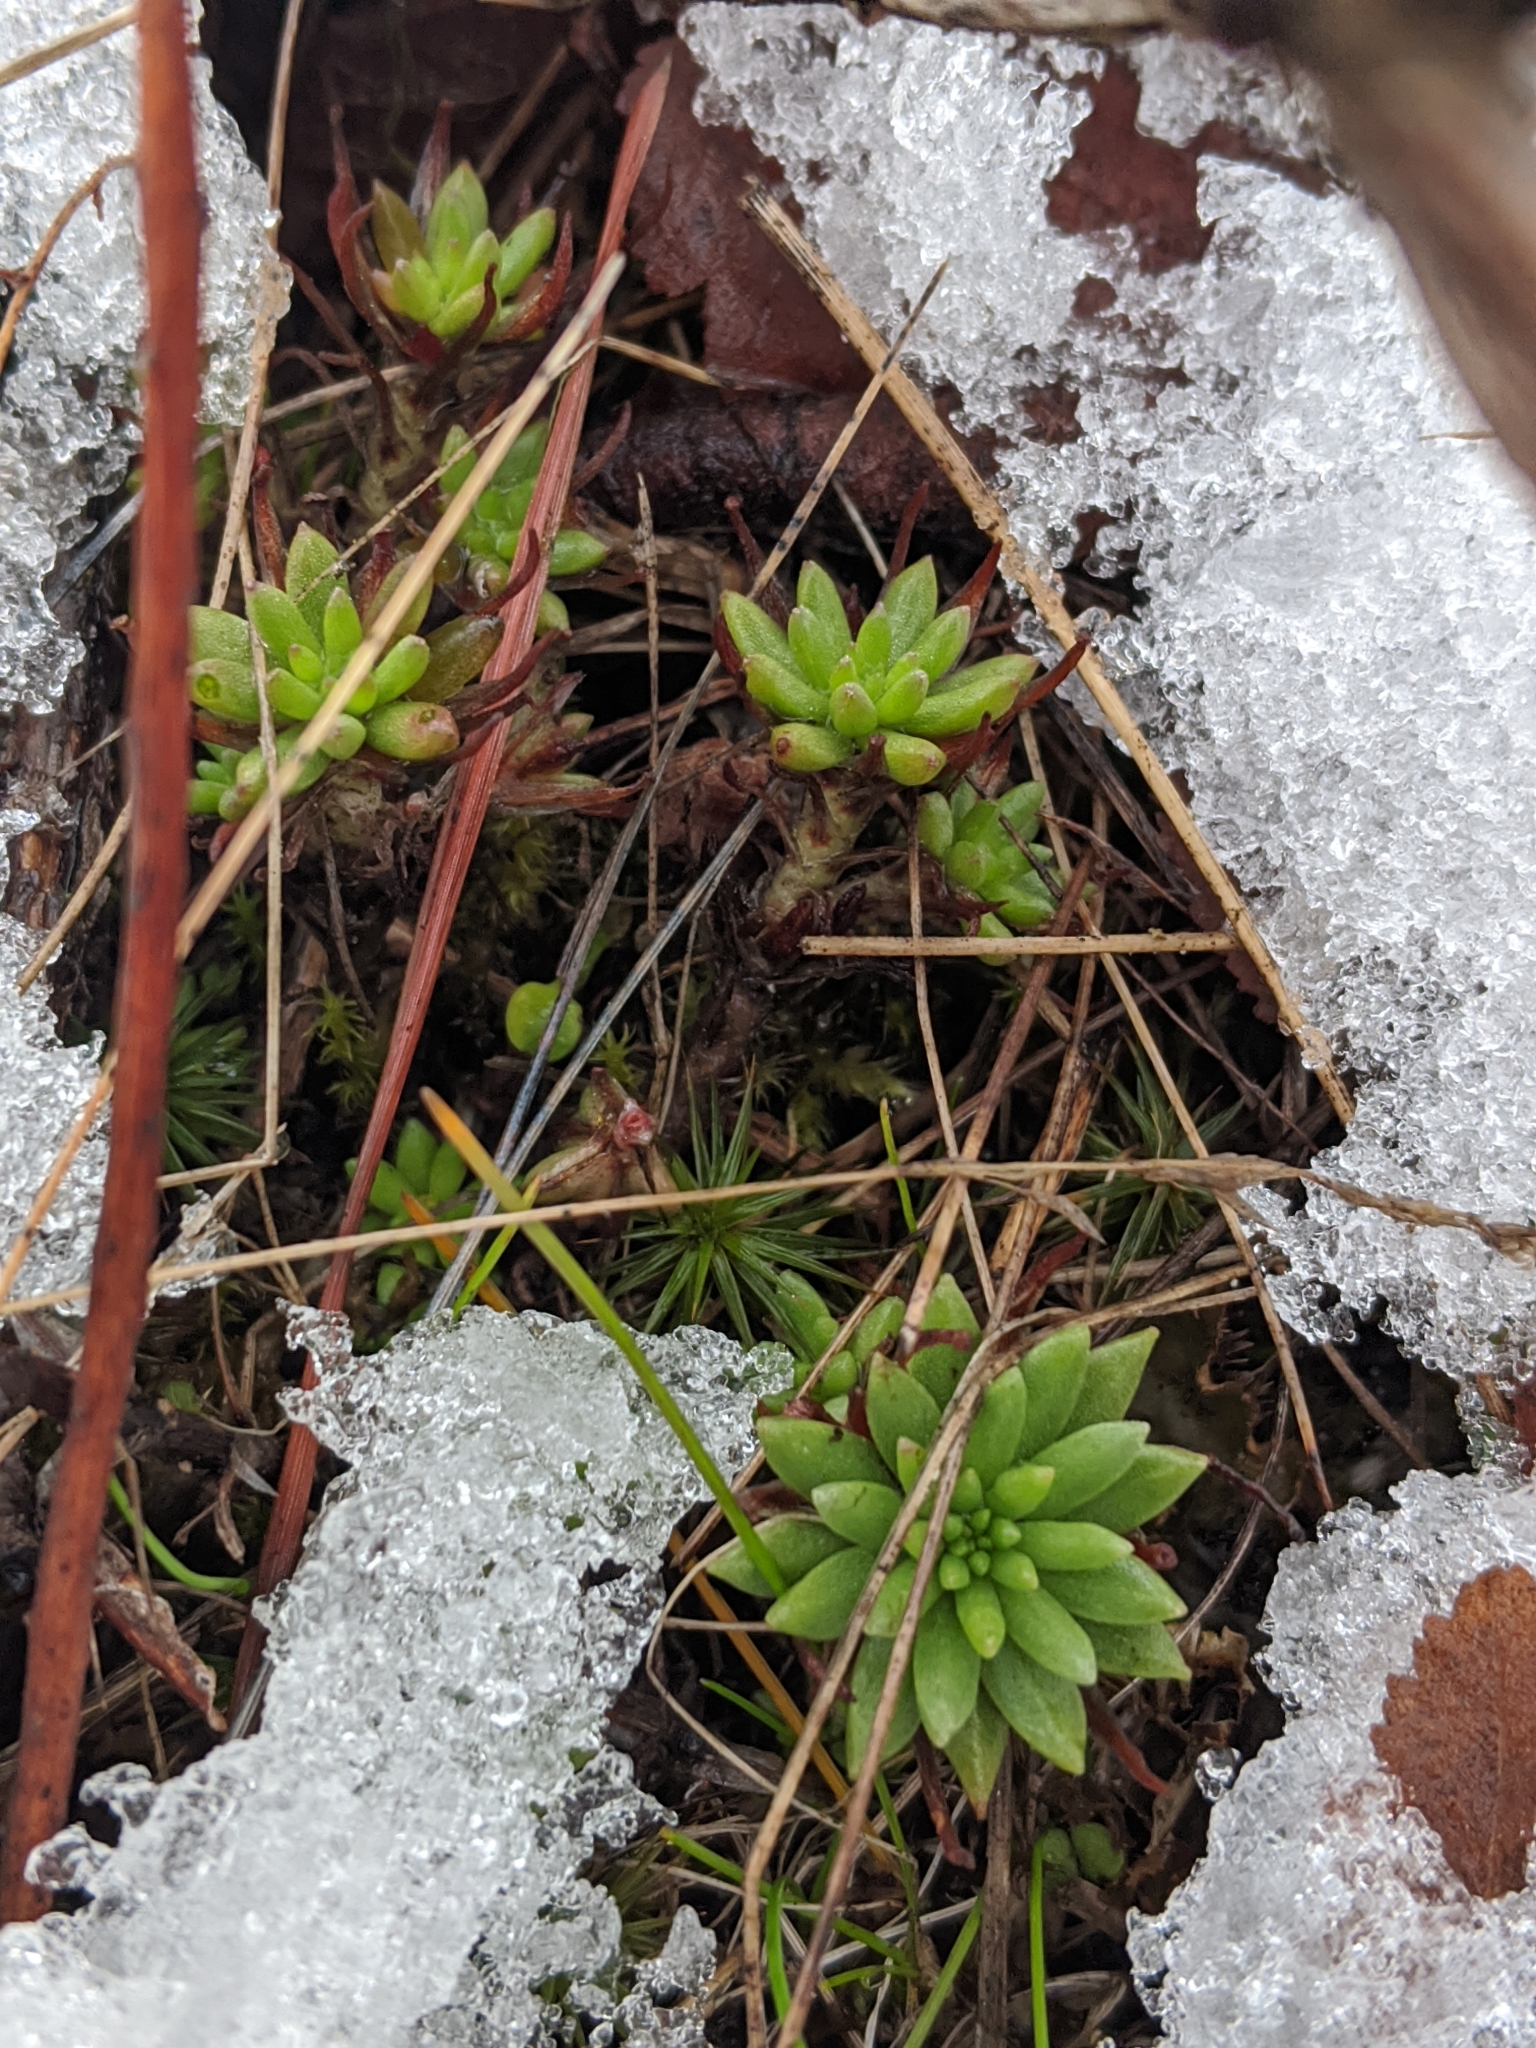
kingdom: Plantae
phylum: Tracheophyta
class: Magnoliopsida
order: Saxifragales
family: Crassulaceae
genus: Sedum
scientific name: Sedum stenopetalum
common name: Narrow-petaled stonecrop
